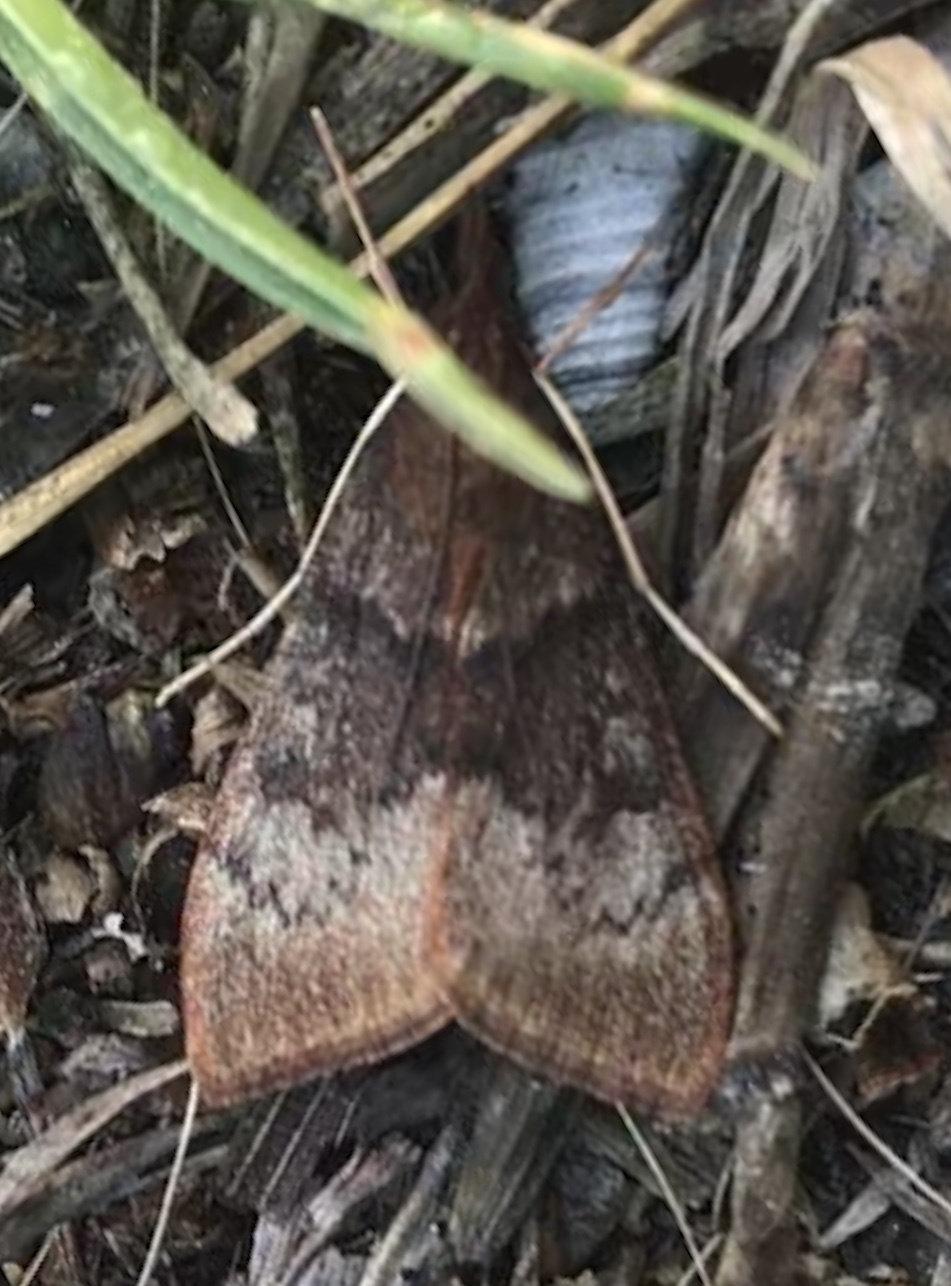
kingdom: Animalia
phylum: Arthropoda
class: Insecta
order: Lepidoptera
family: Crambidae
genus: Uresiphita
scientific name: Uresiphita reversalis
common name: Genista broom moth
